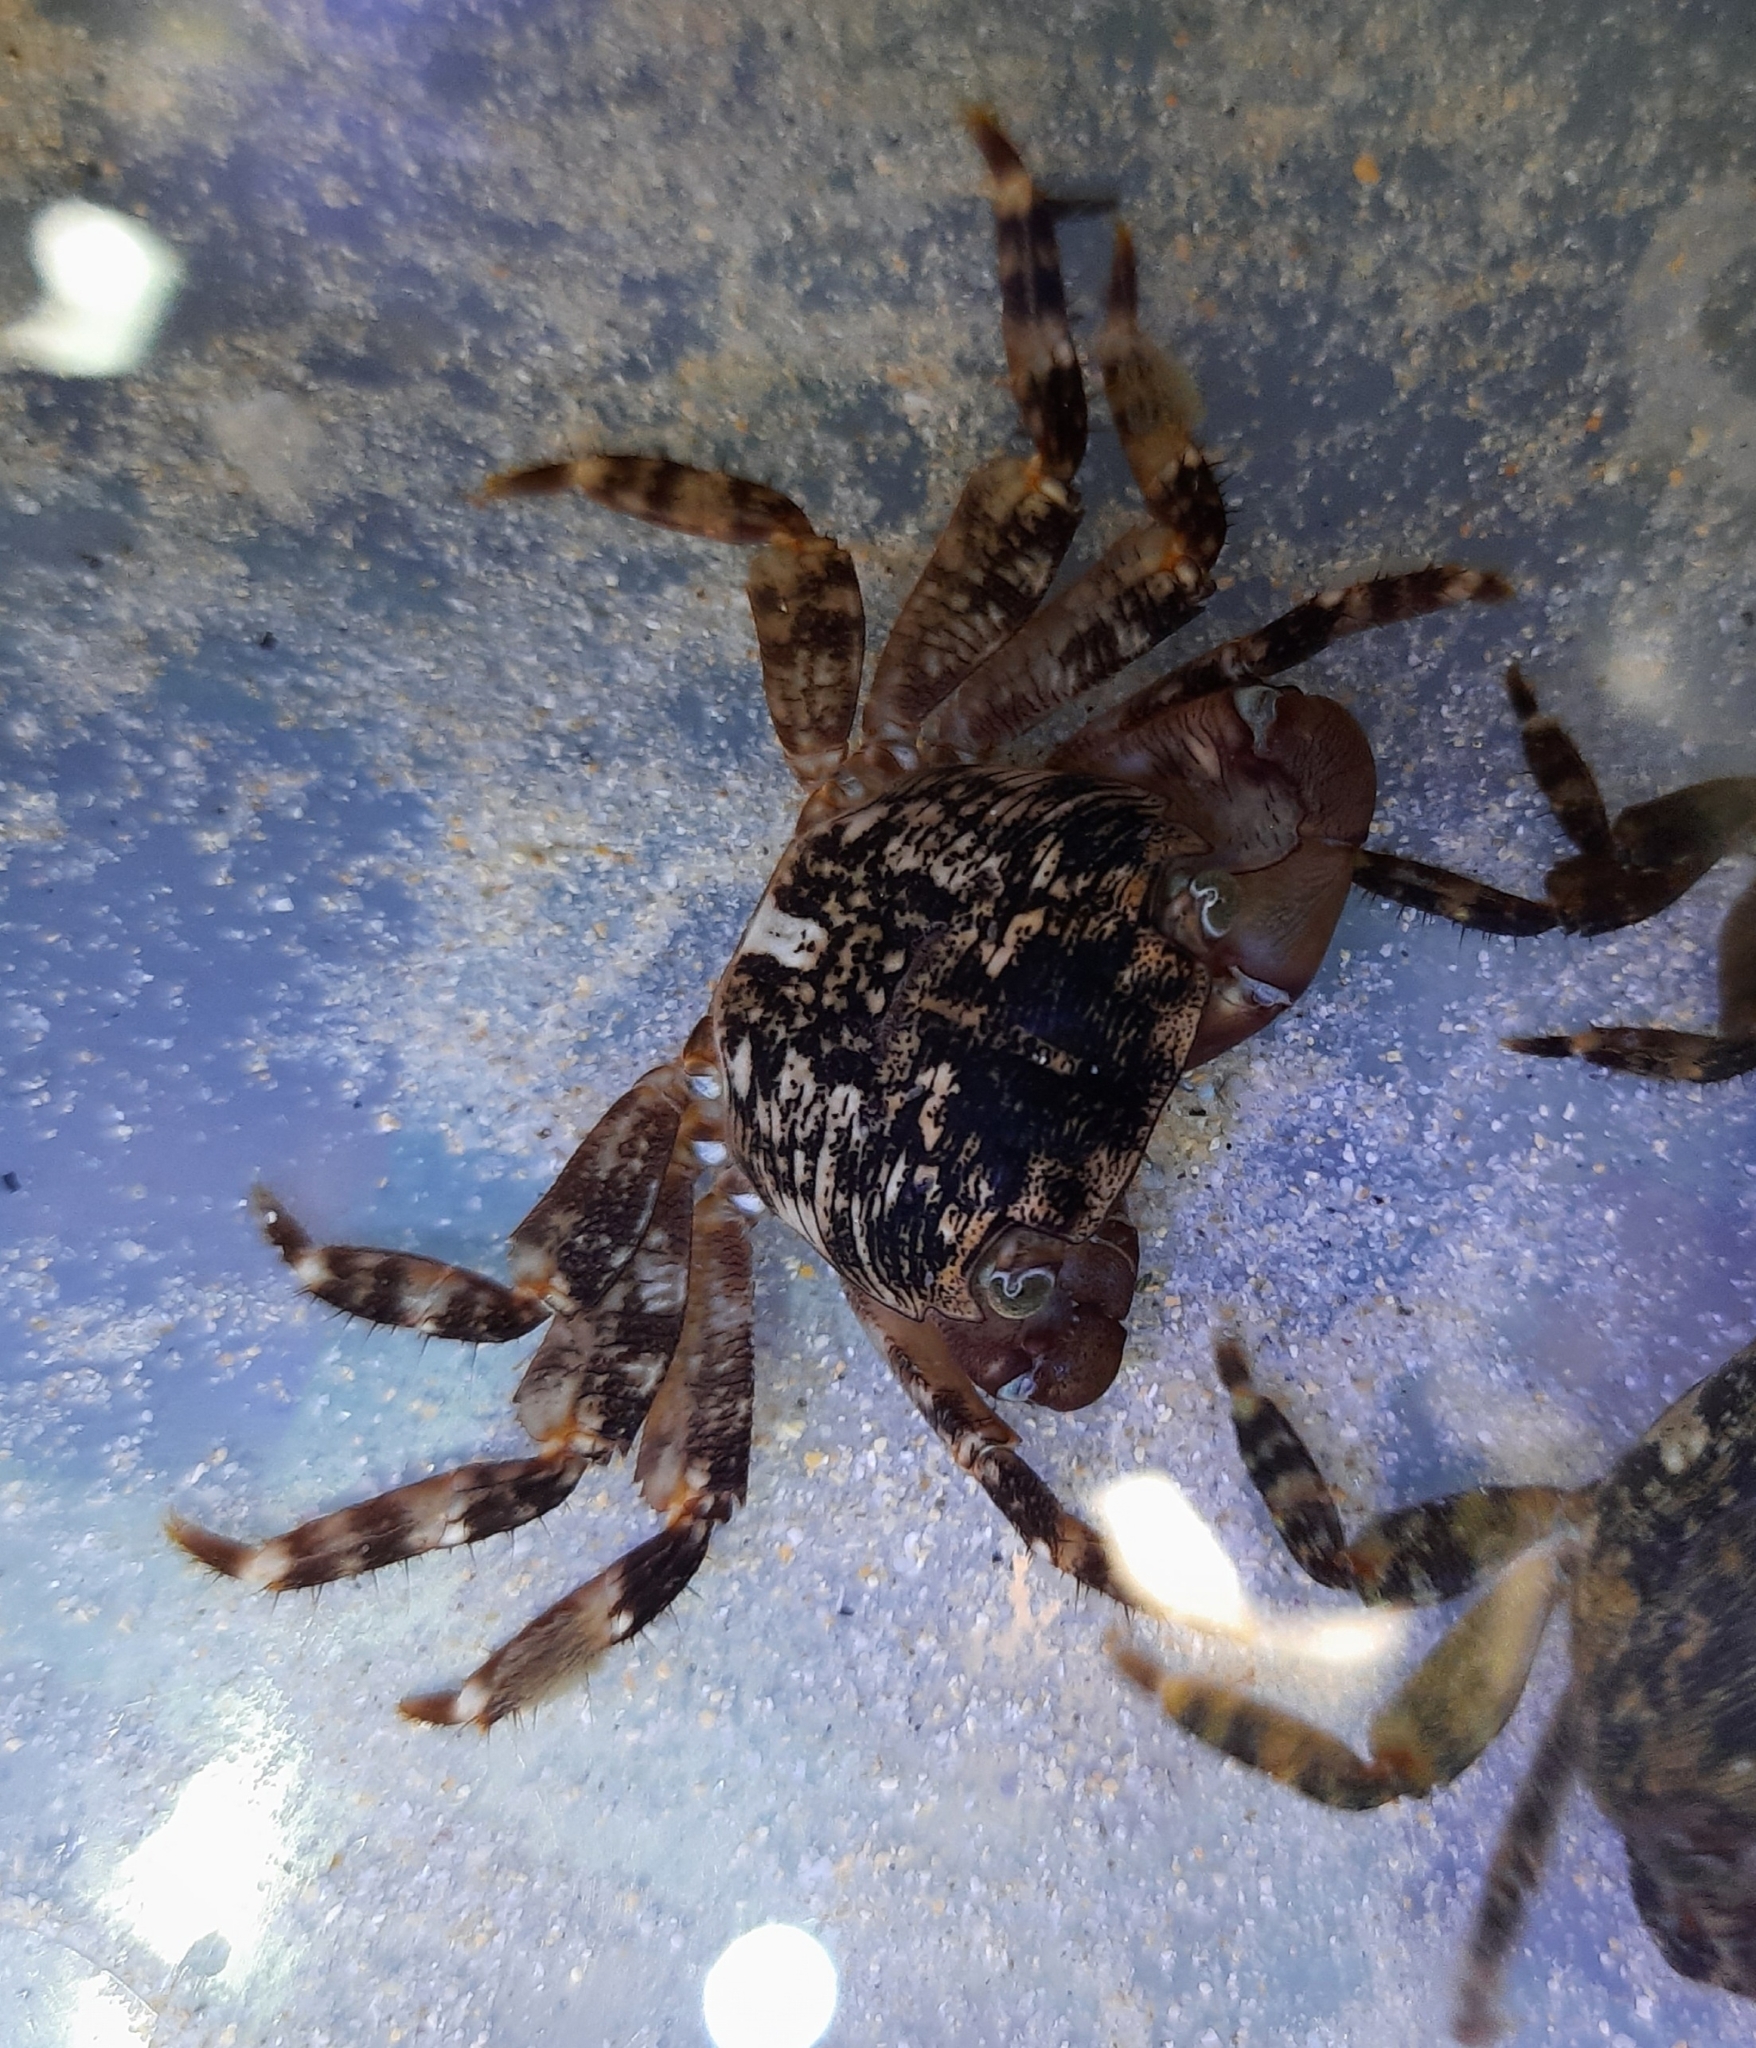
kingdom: Animalia
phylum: Arthropoda
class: Malacostraca
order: Decapoda
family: Grapsidae
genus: Pachygrapsus
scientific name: Pachygrapsus laevimanus
